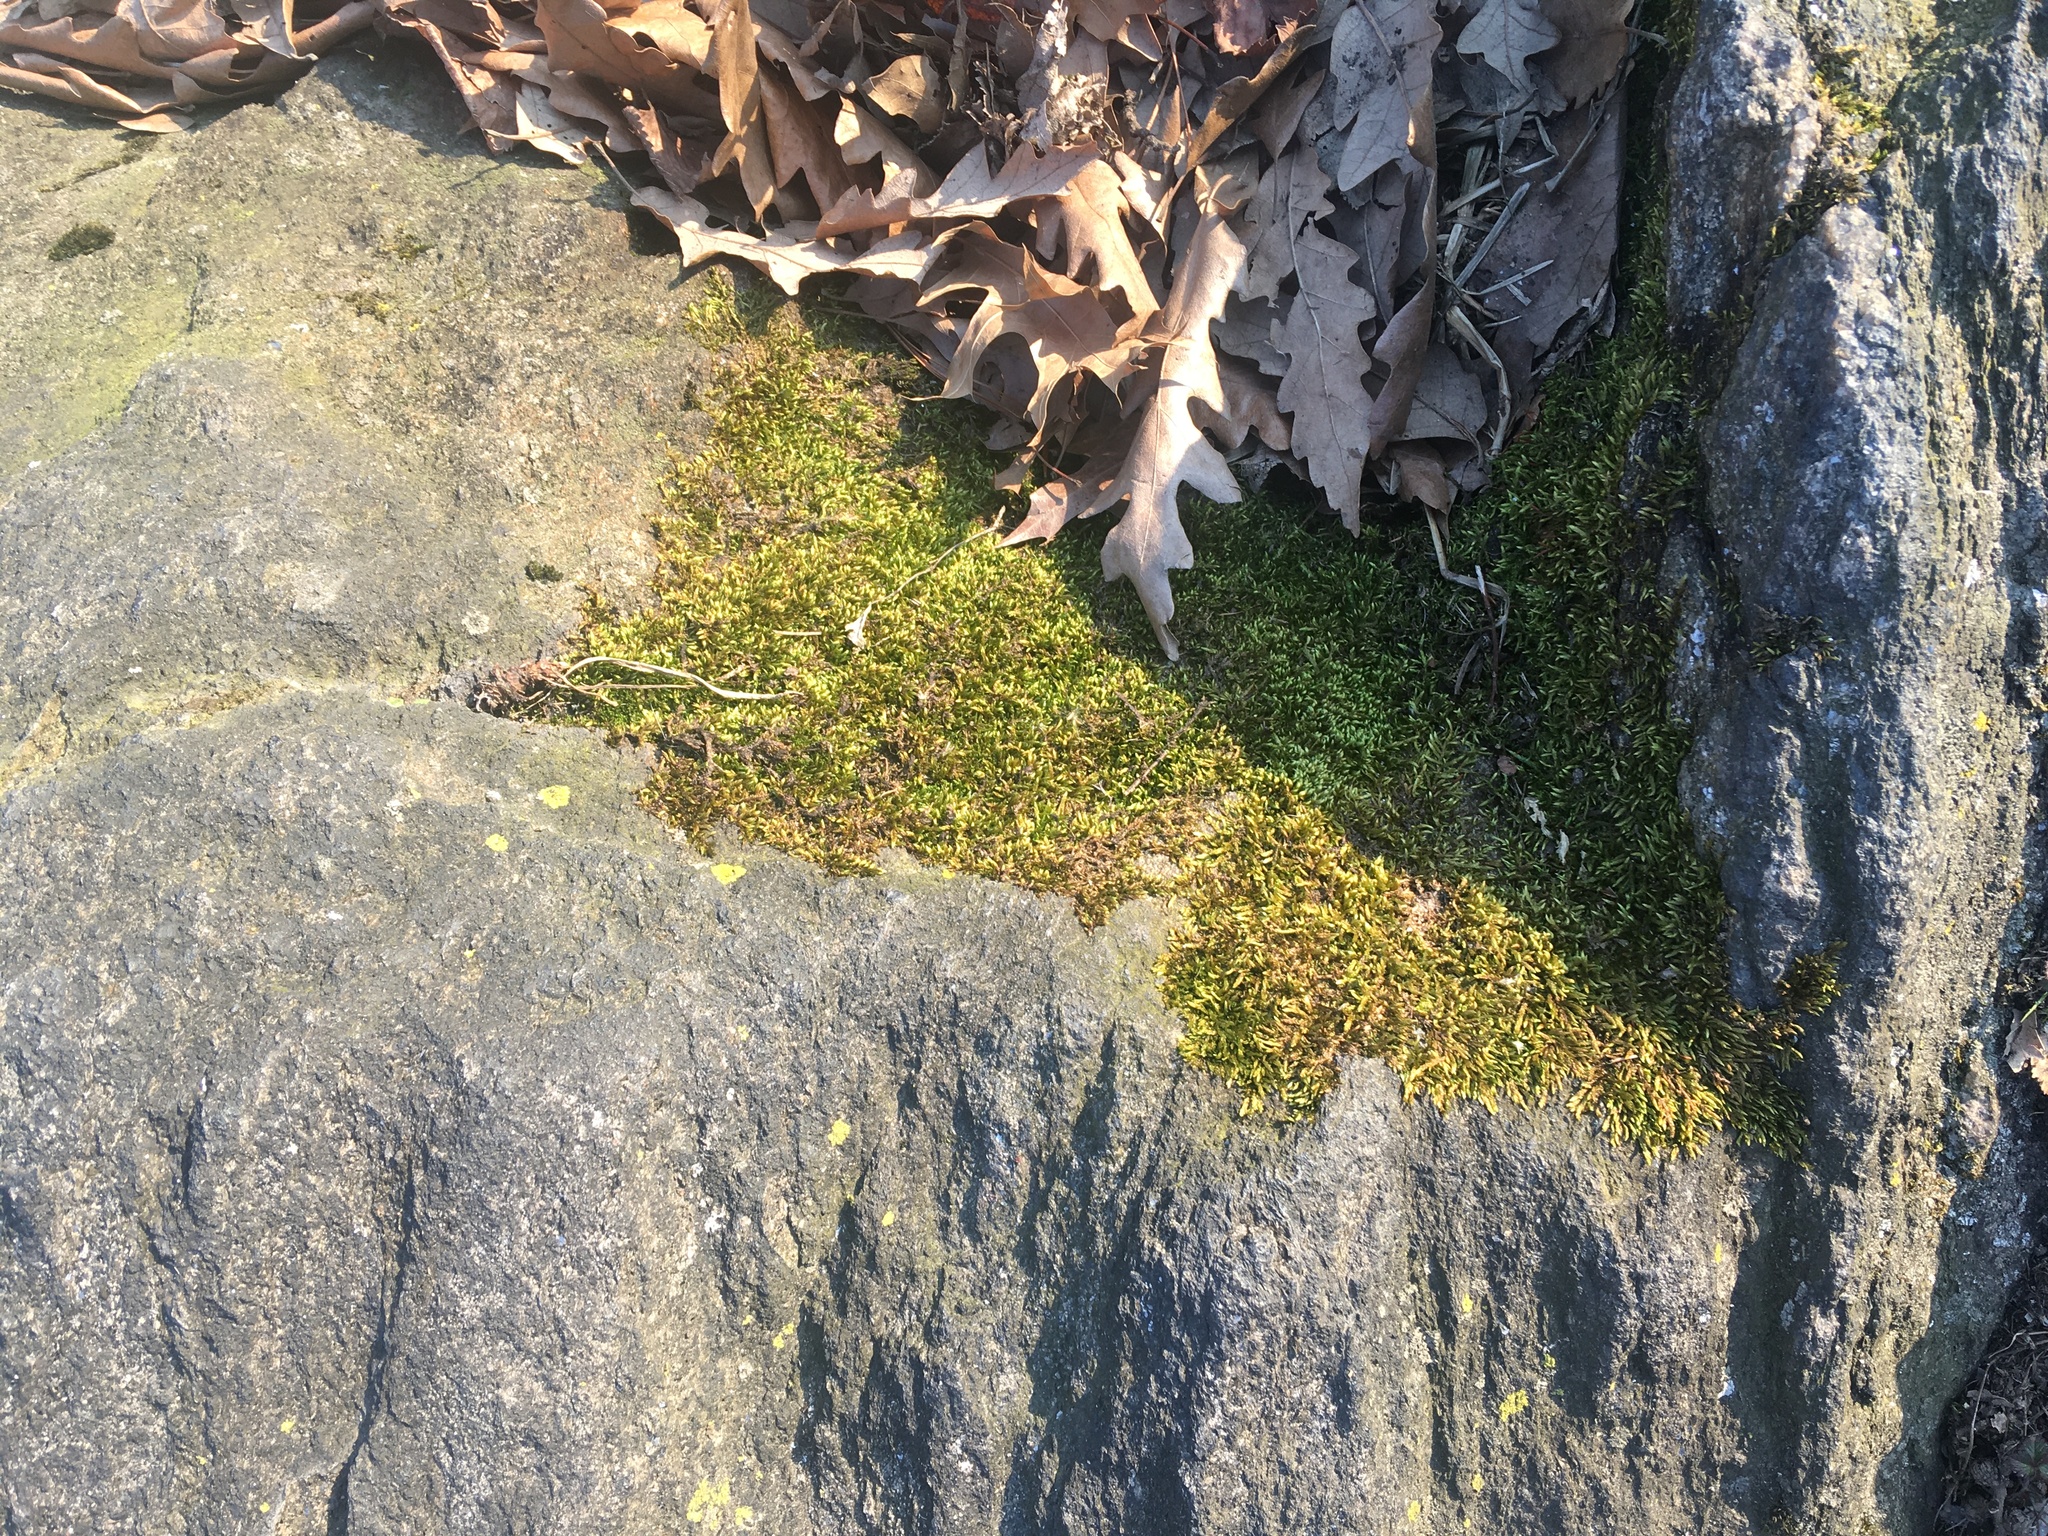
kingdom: Plantae
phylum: Bryophyta
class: Bryopsida
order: Hypnales
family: Entodontaceae
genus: Entodon
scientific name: Entodon seductrix
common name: Round-stemmed entodon moss
